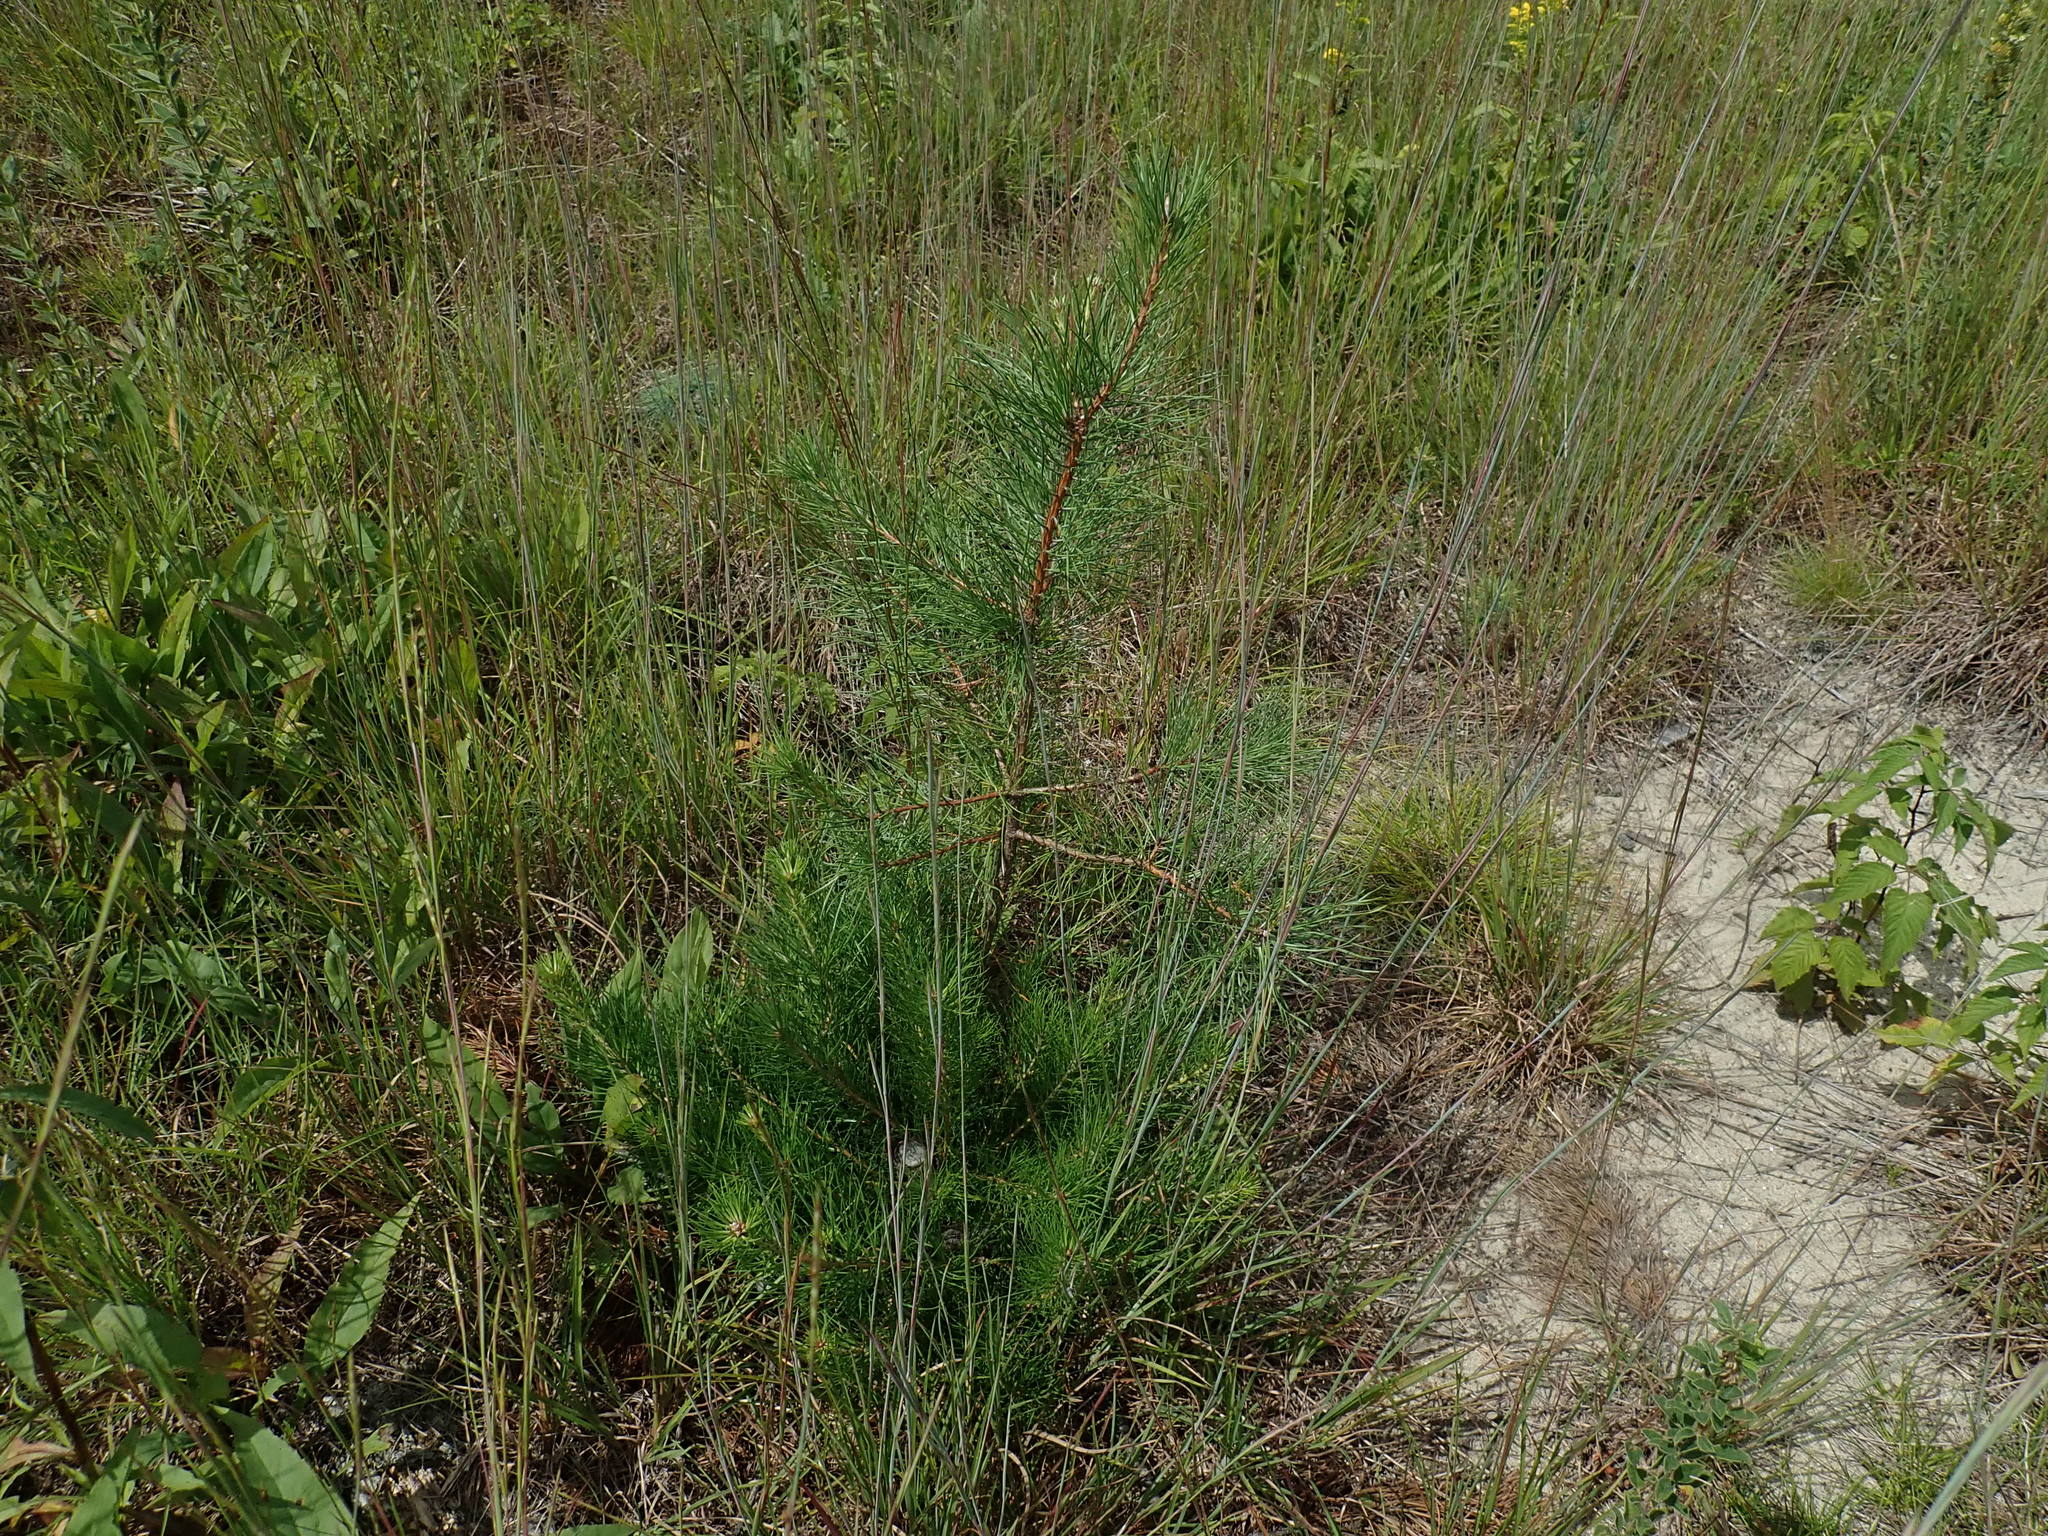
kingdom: Plantae
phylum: Tracheophyta
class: Pinopsida
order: Pinales
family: Pinaceae
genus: Pinus
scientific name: Pinus rigida
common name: Pitch pine
